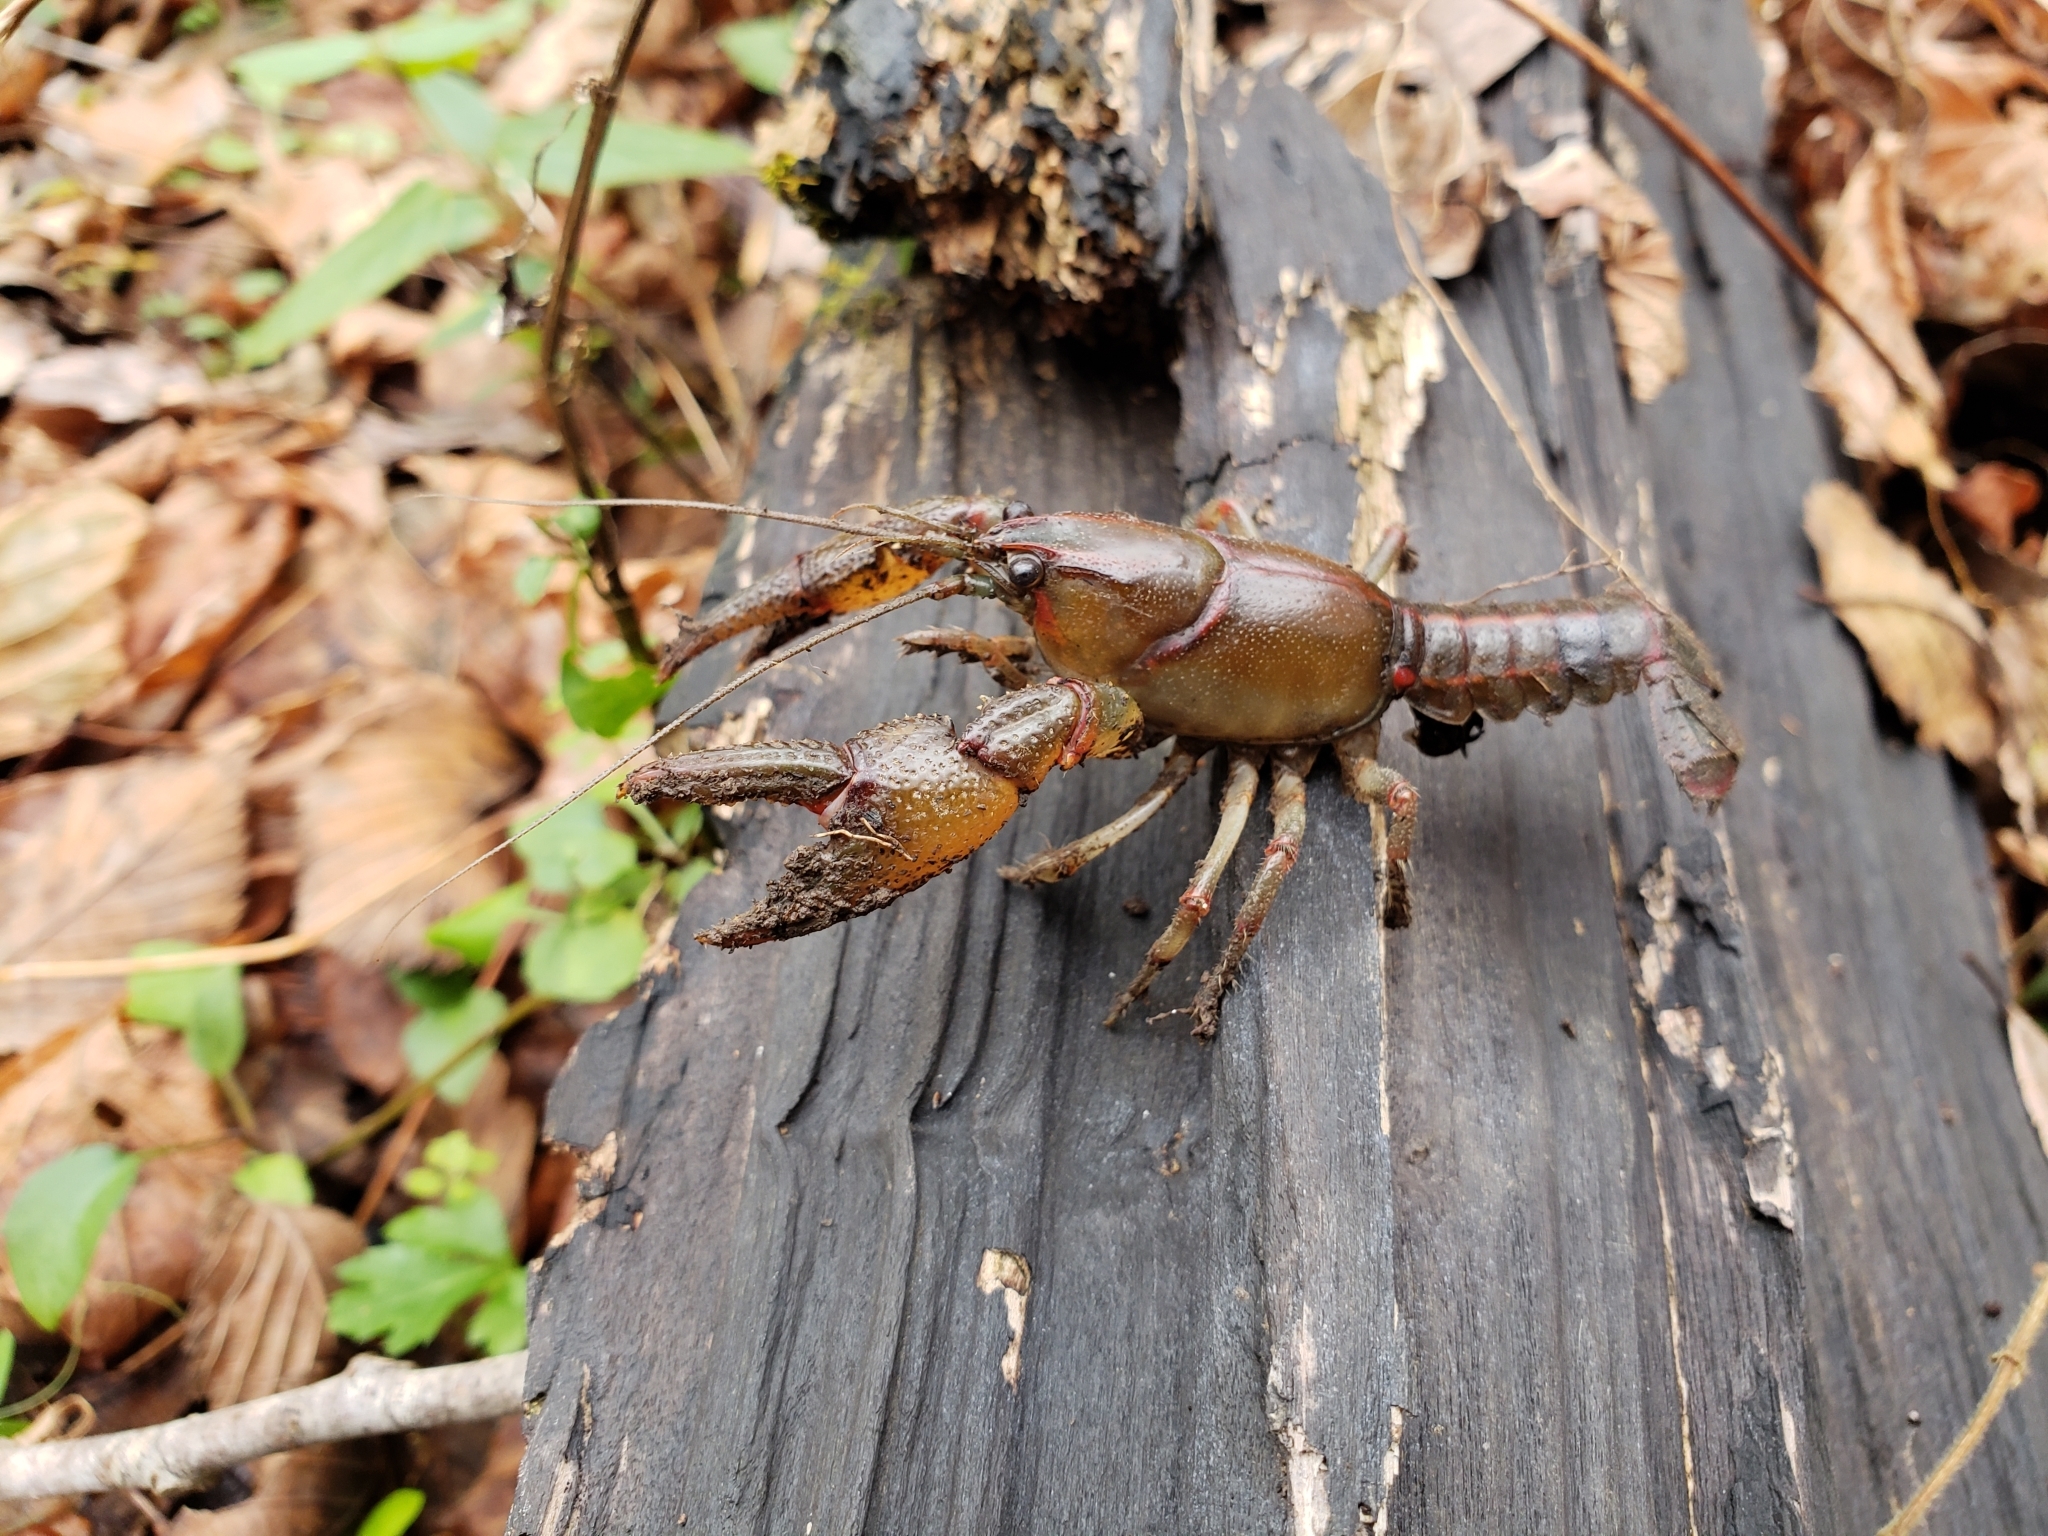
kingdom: Animalia
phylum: Arthropoda
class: Malacostraca
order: Decapoda
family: Cambaridae
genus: Lacunicambarus
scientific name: Lacunicambarus ludovicianus
